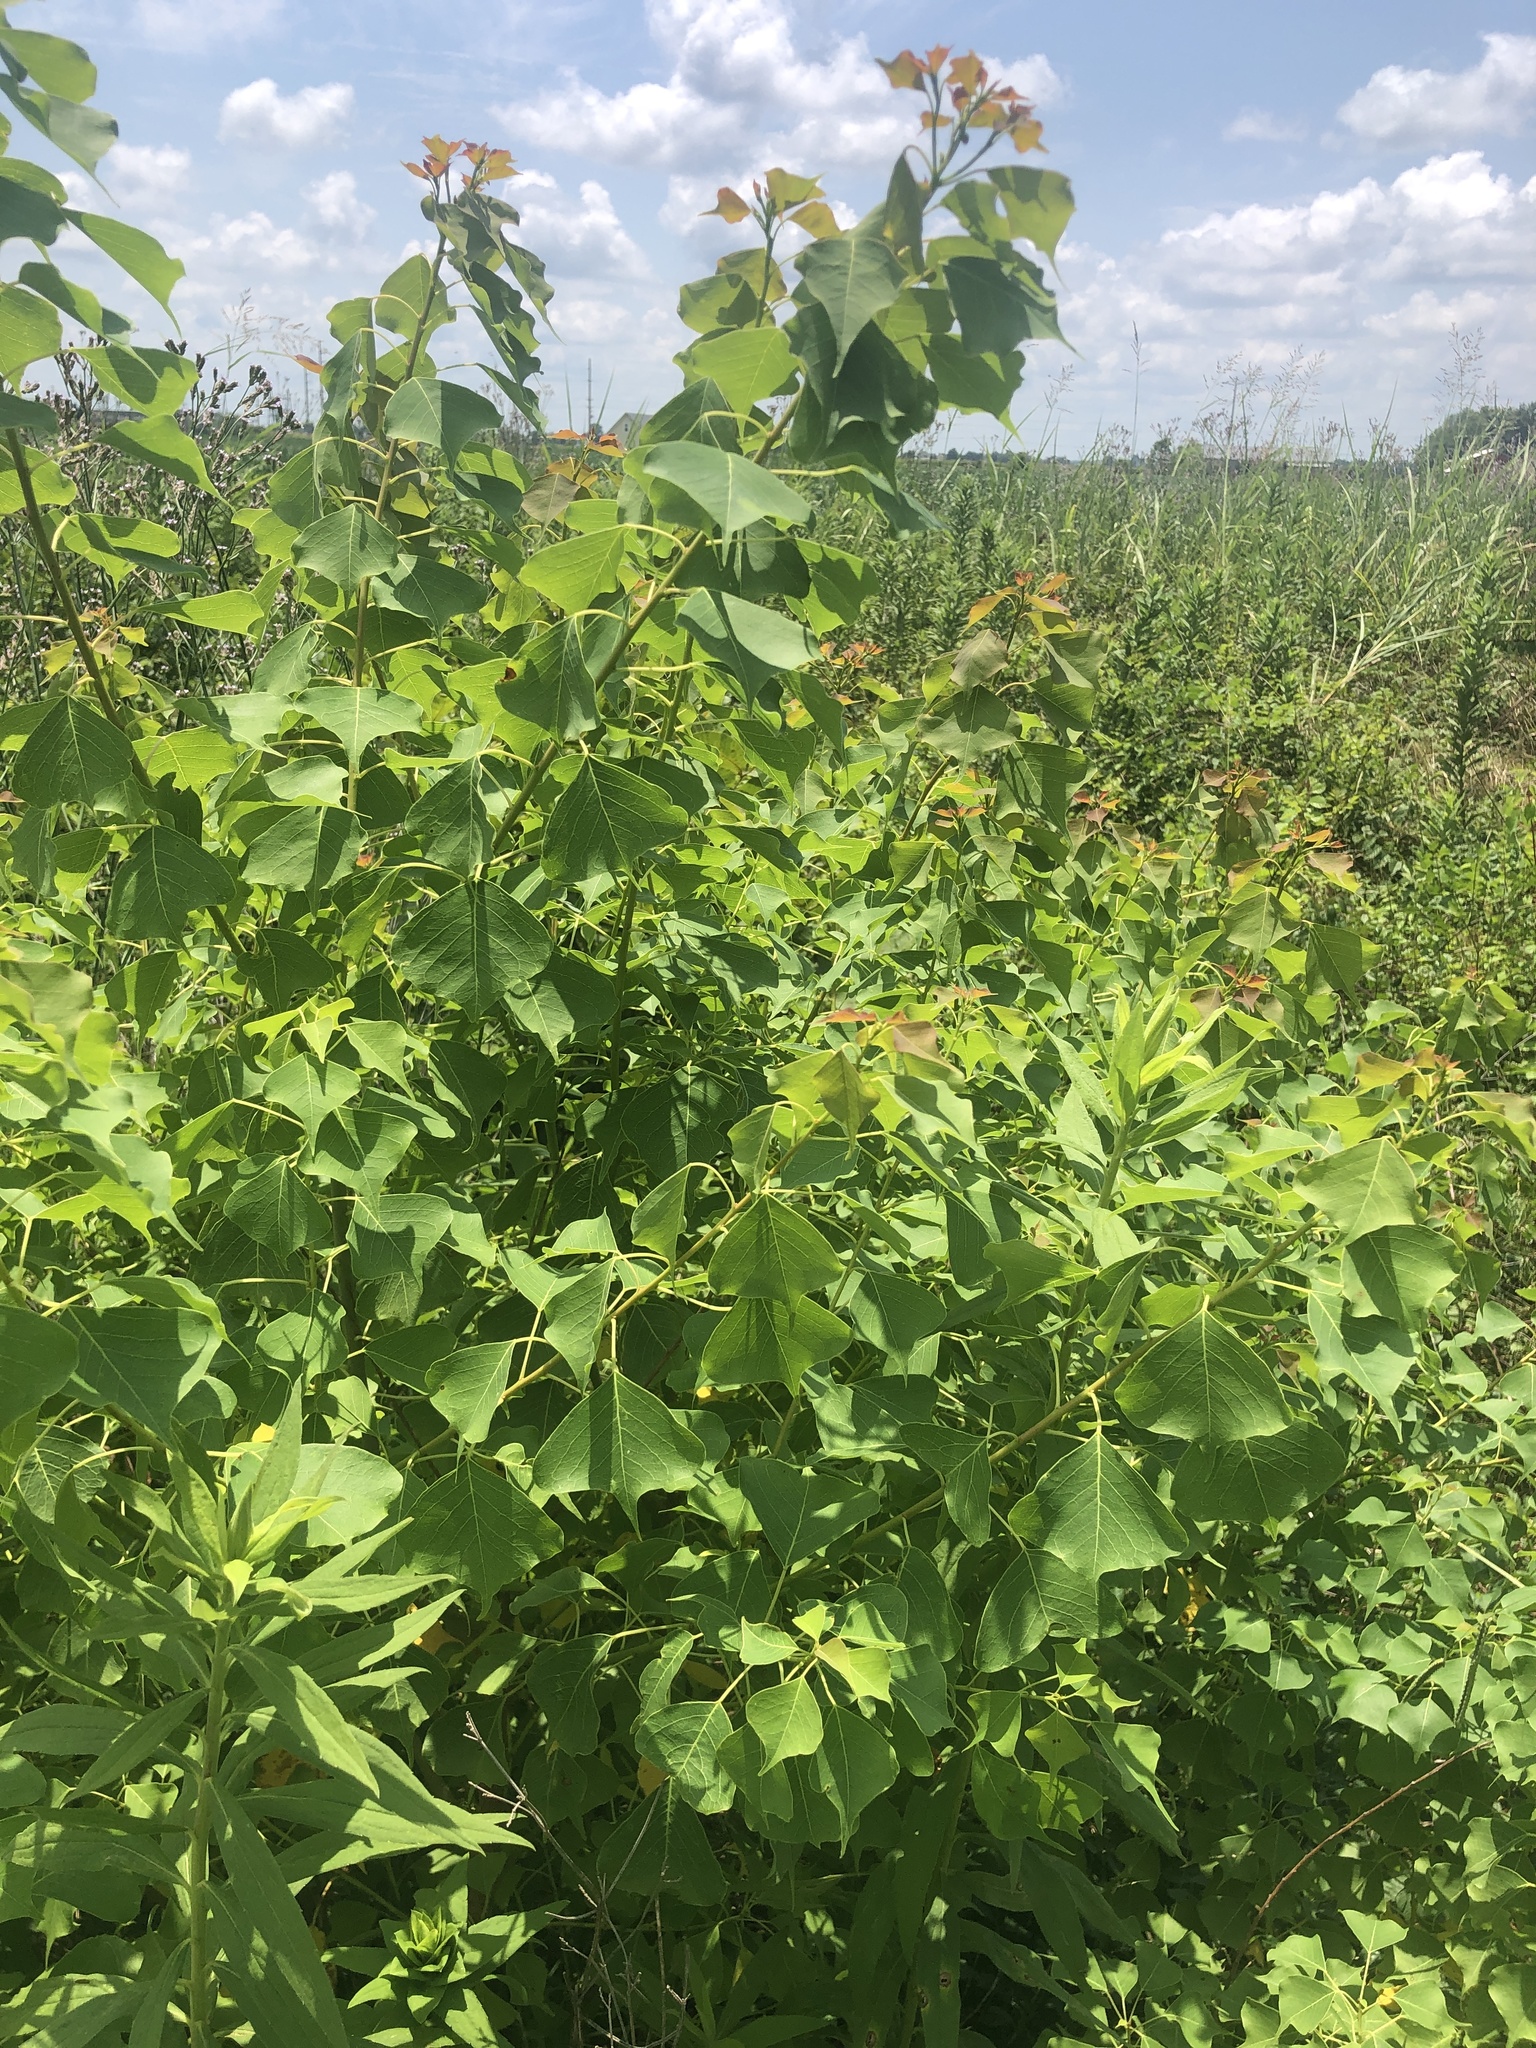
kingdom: Plantae
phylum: Tracheophyta
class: Magnoliopsida
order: Malpighiales
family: Euphorbiaceae
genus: Triadica
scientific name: Triadica sebifera
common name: Chinese tallow
